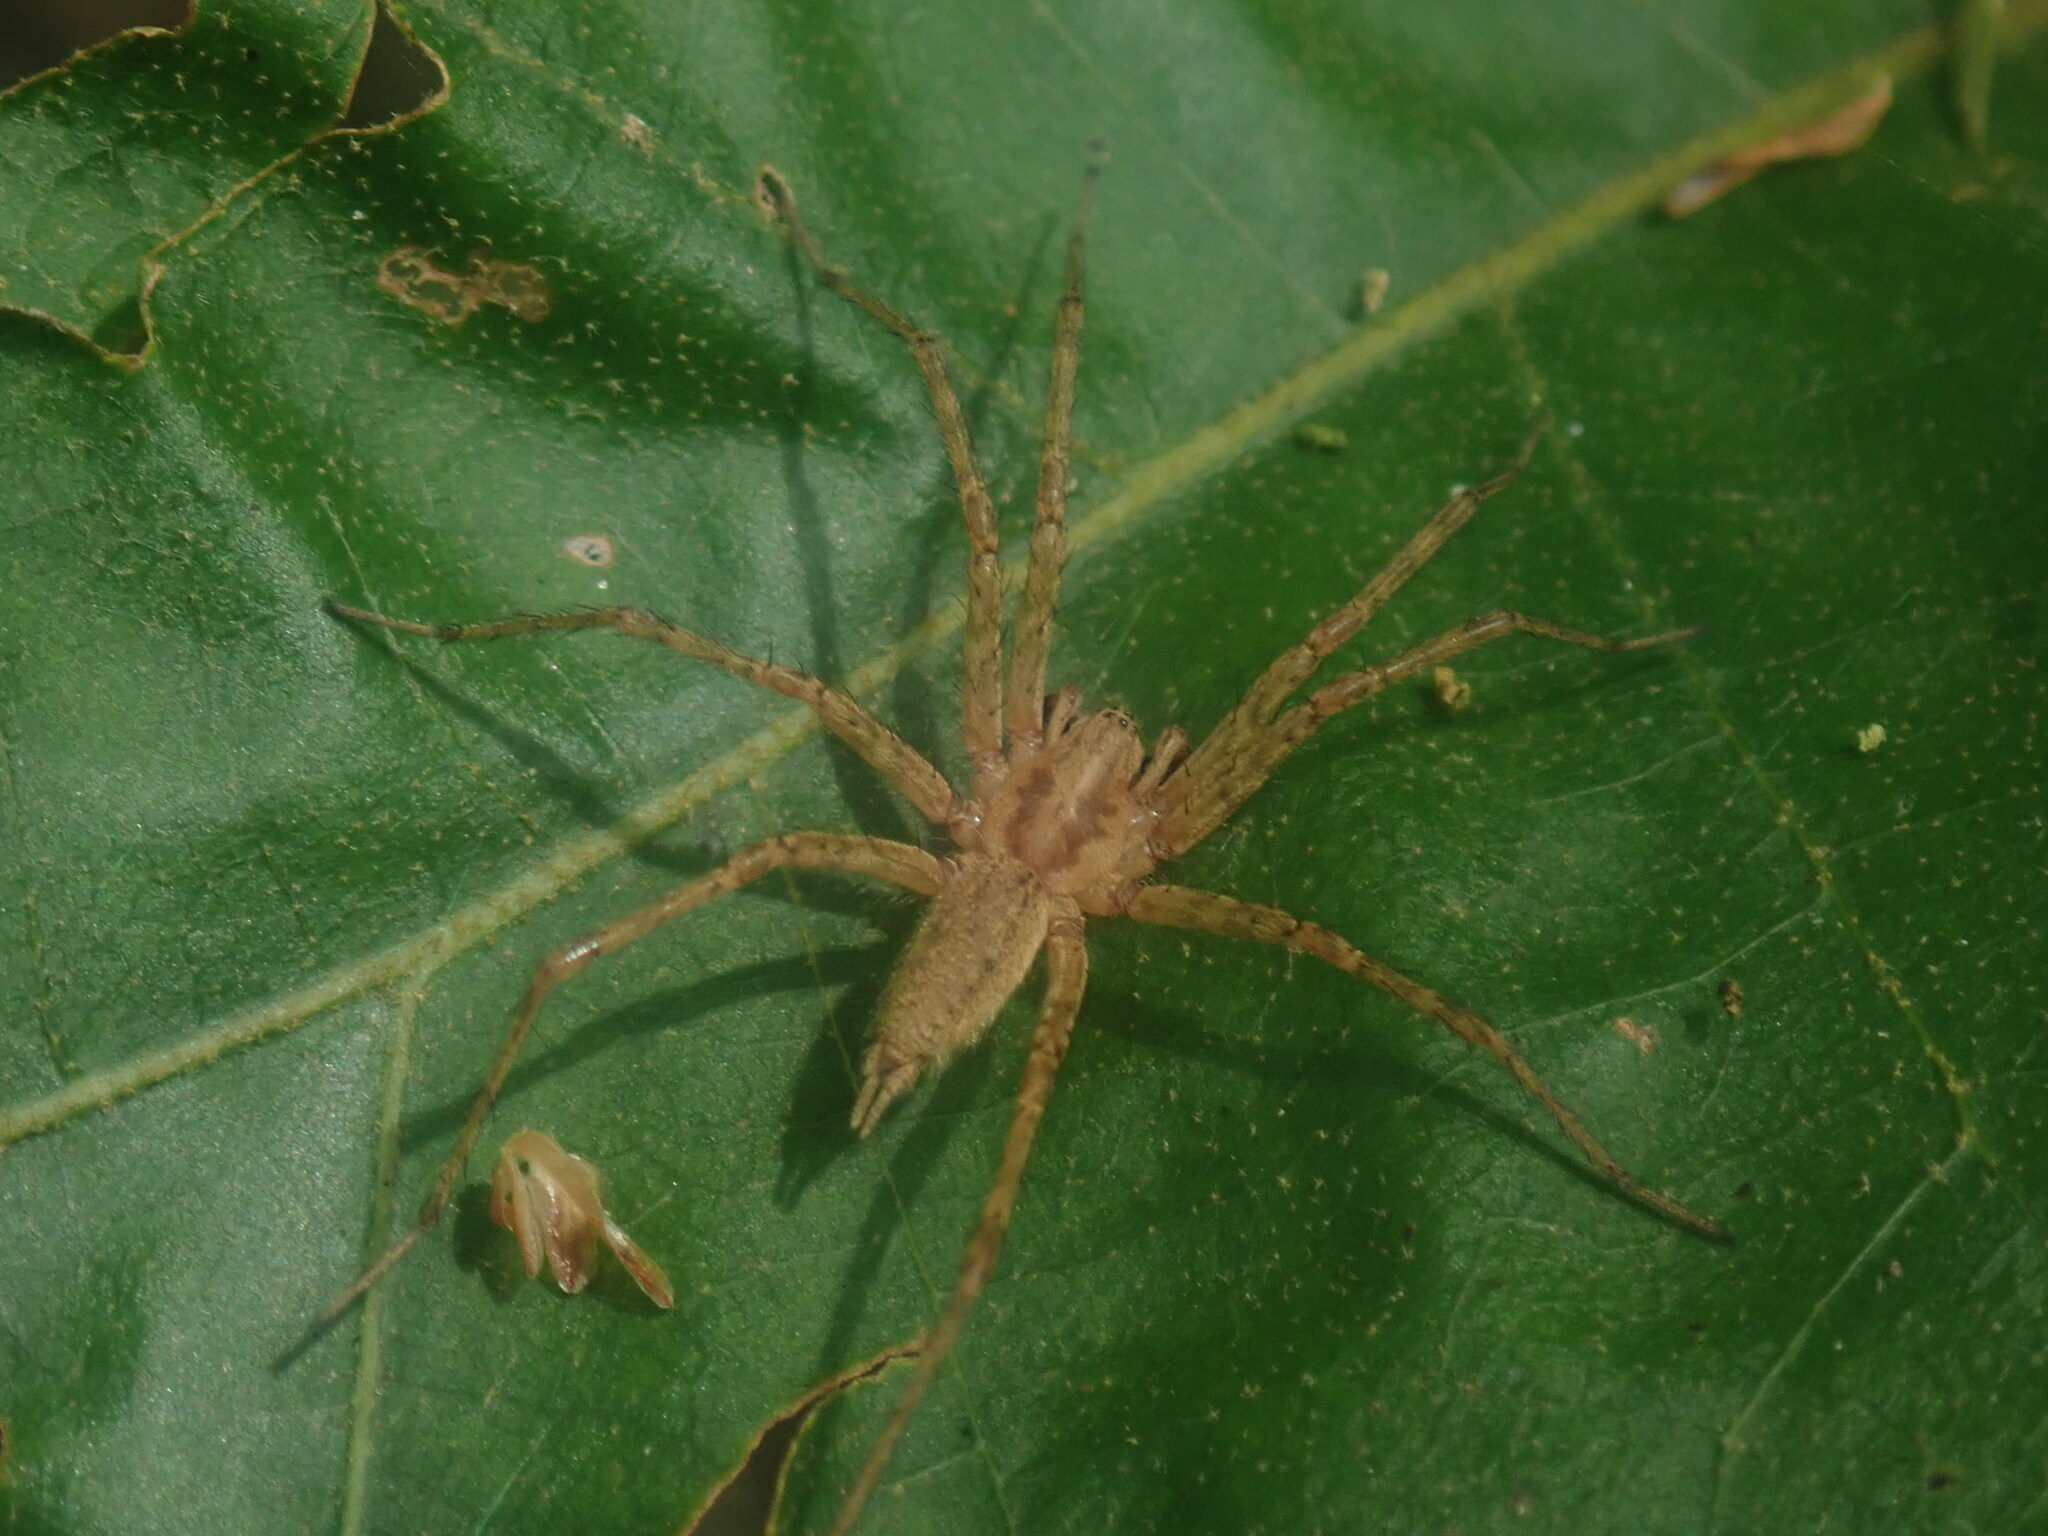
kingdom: Animalia
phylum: Arthropoda
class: Arachnida
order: Araneae
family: Agelenidae
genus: Agelenopsis
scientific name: Agelenopsis
